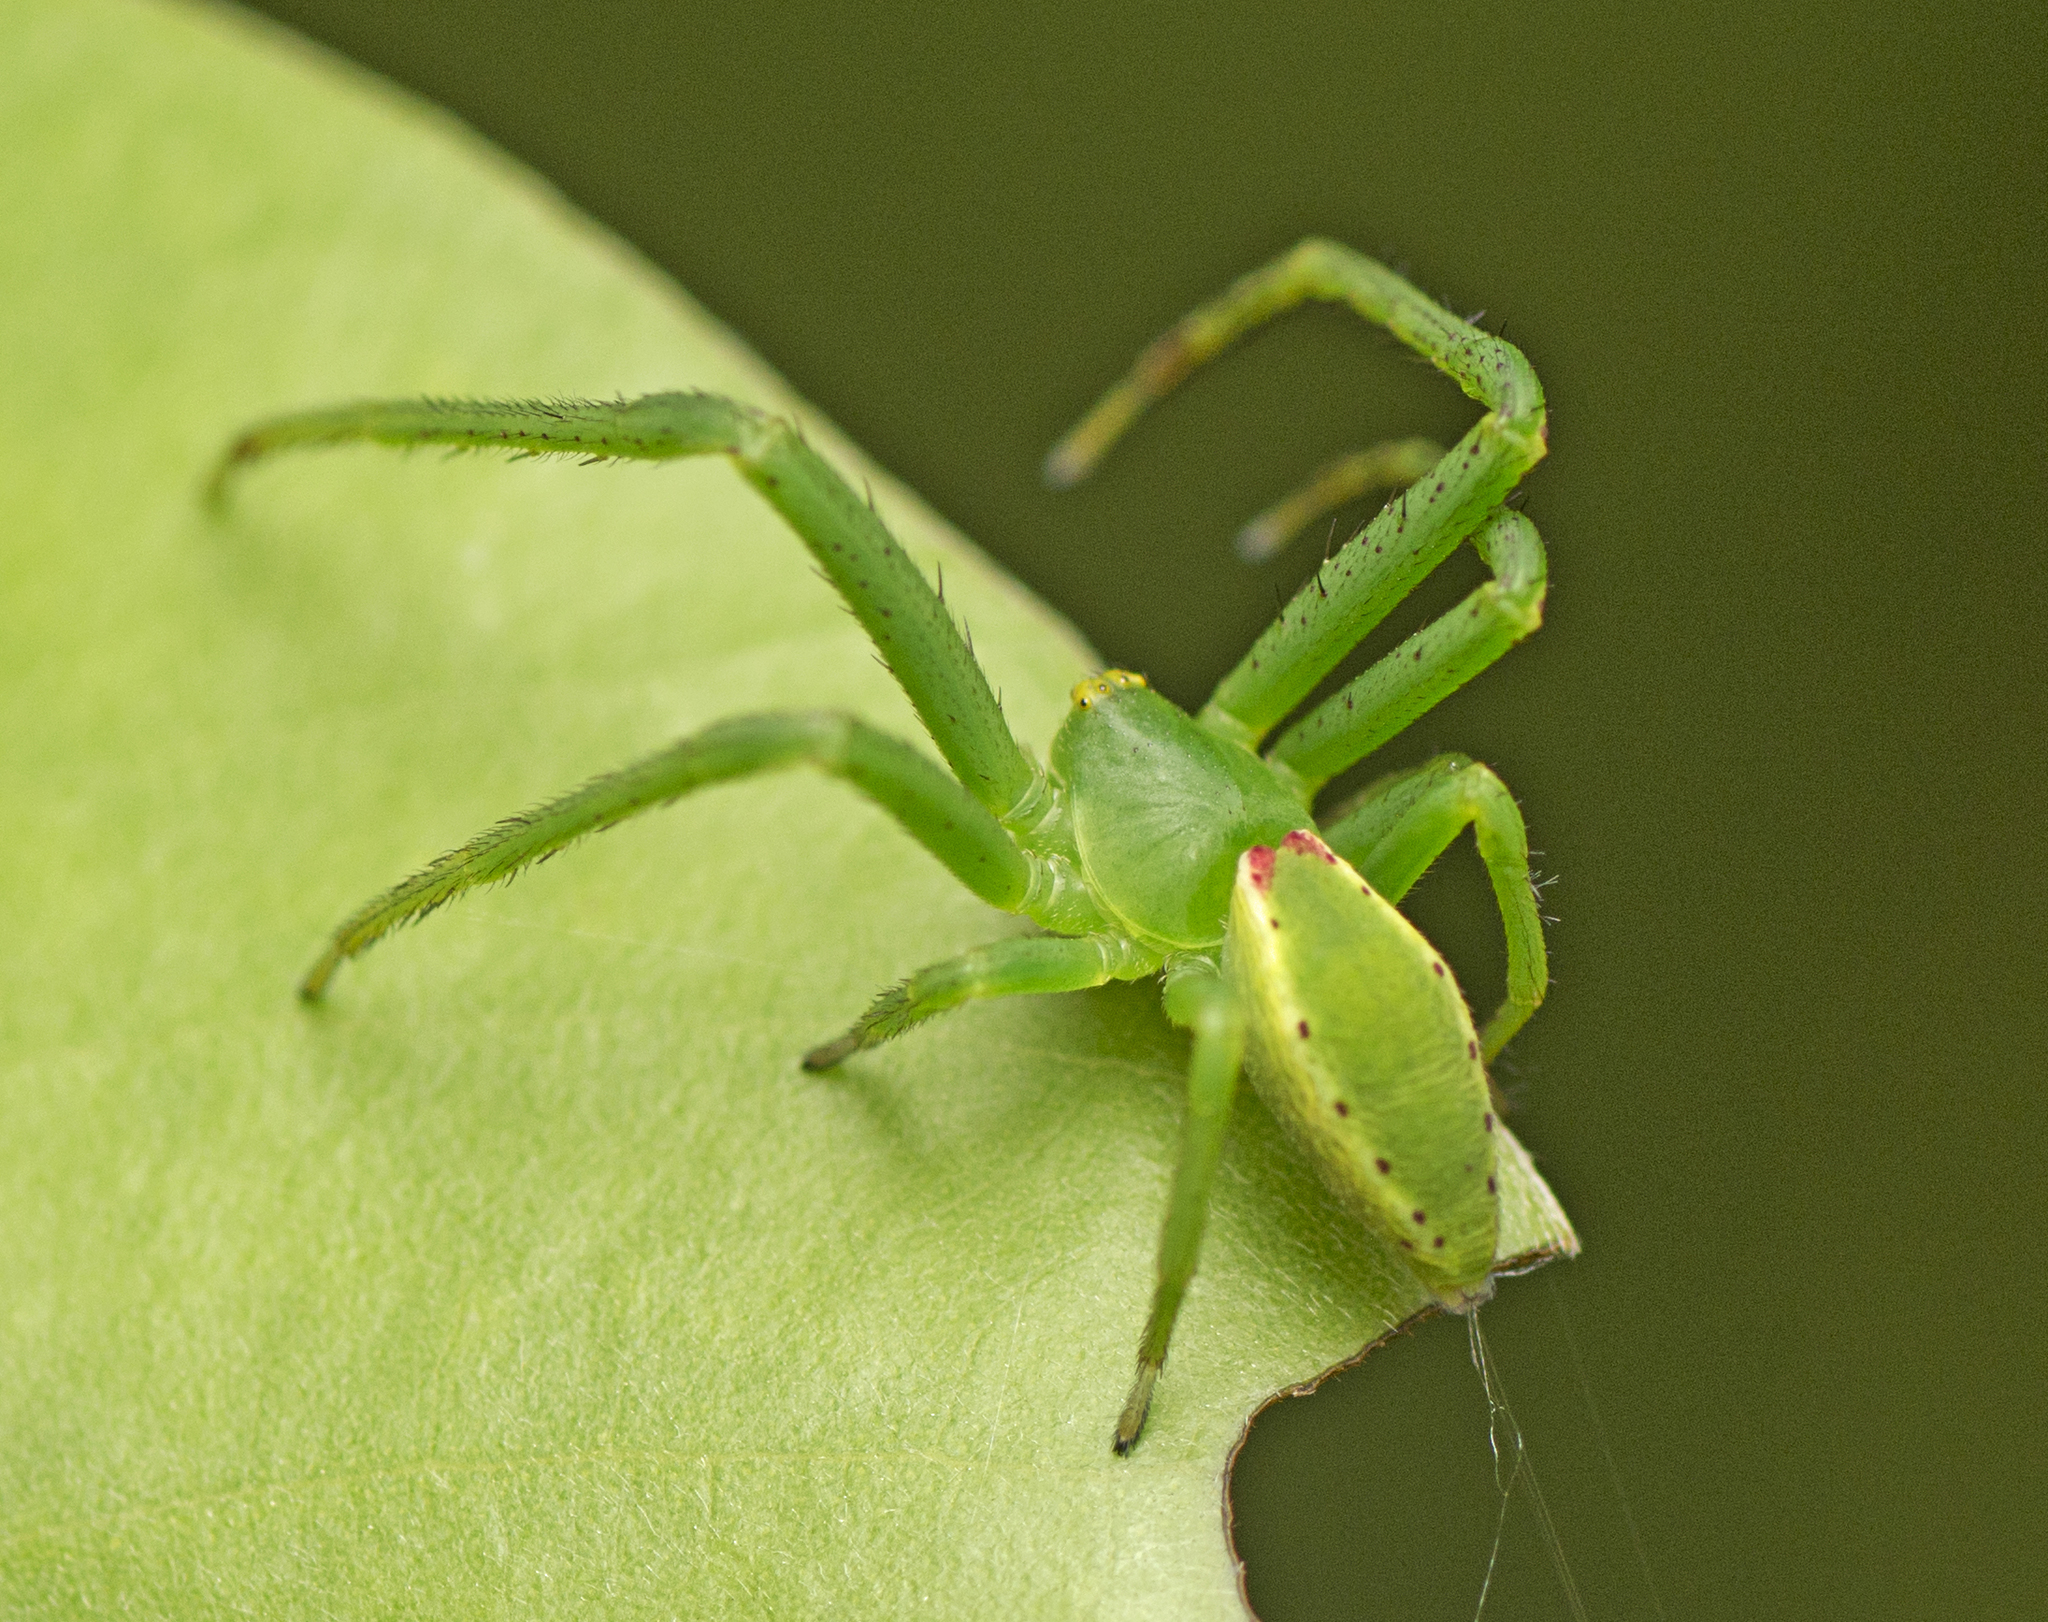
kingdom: Animalia
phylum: Arthropoda
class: Arachnida
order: Araneae
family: Thomisidae
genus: Sidymella
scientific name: Sidymella rubrosignata
